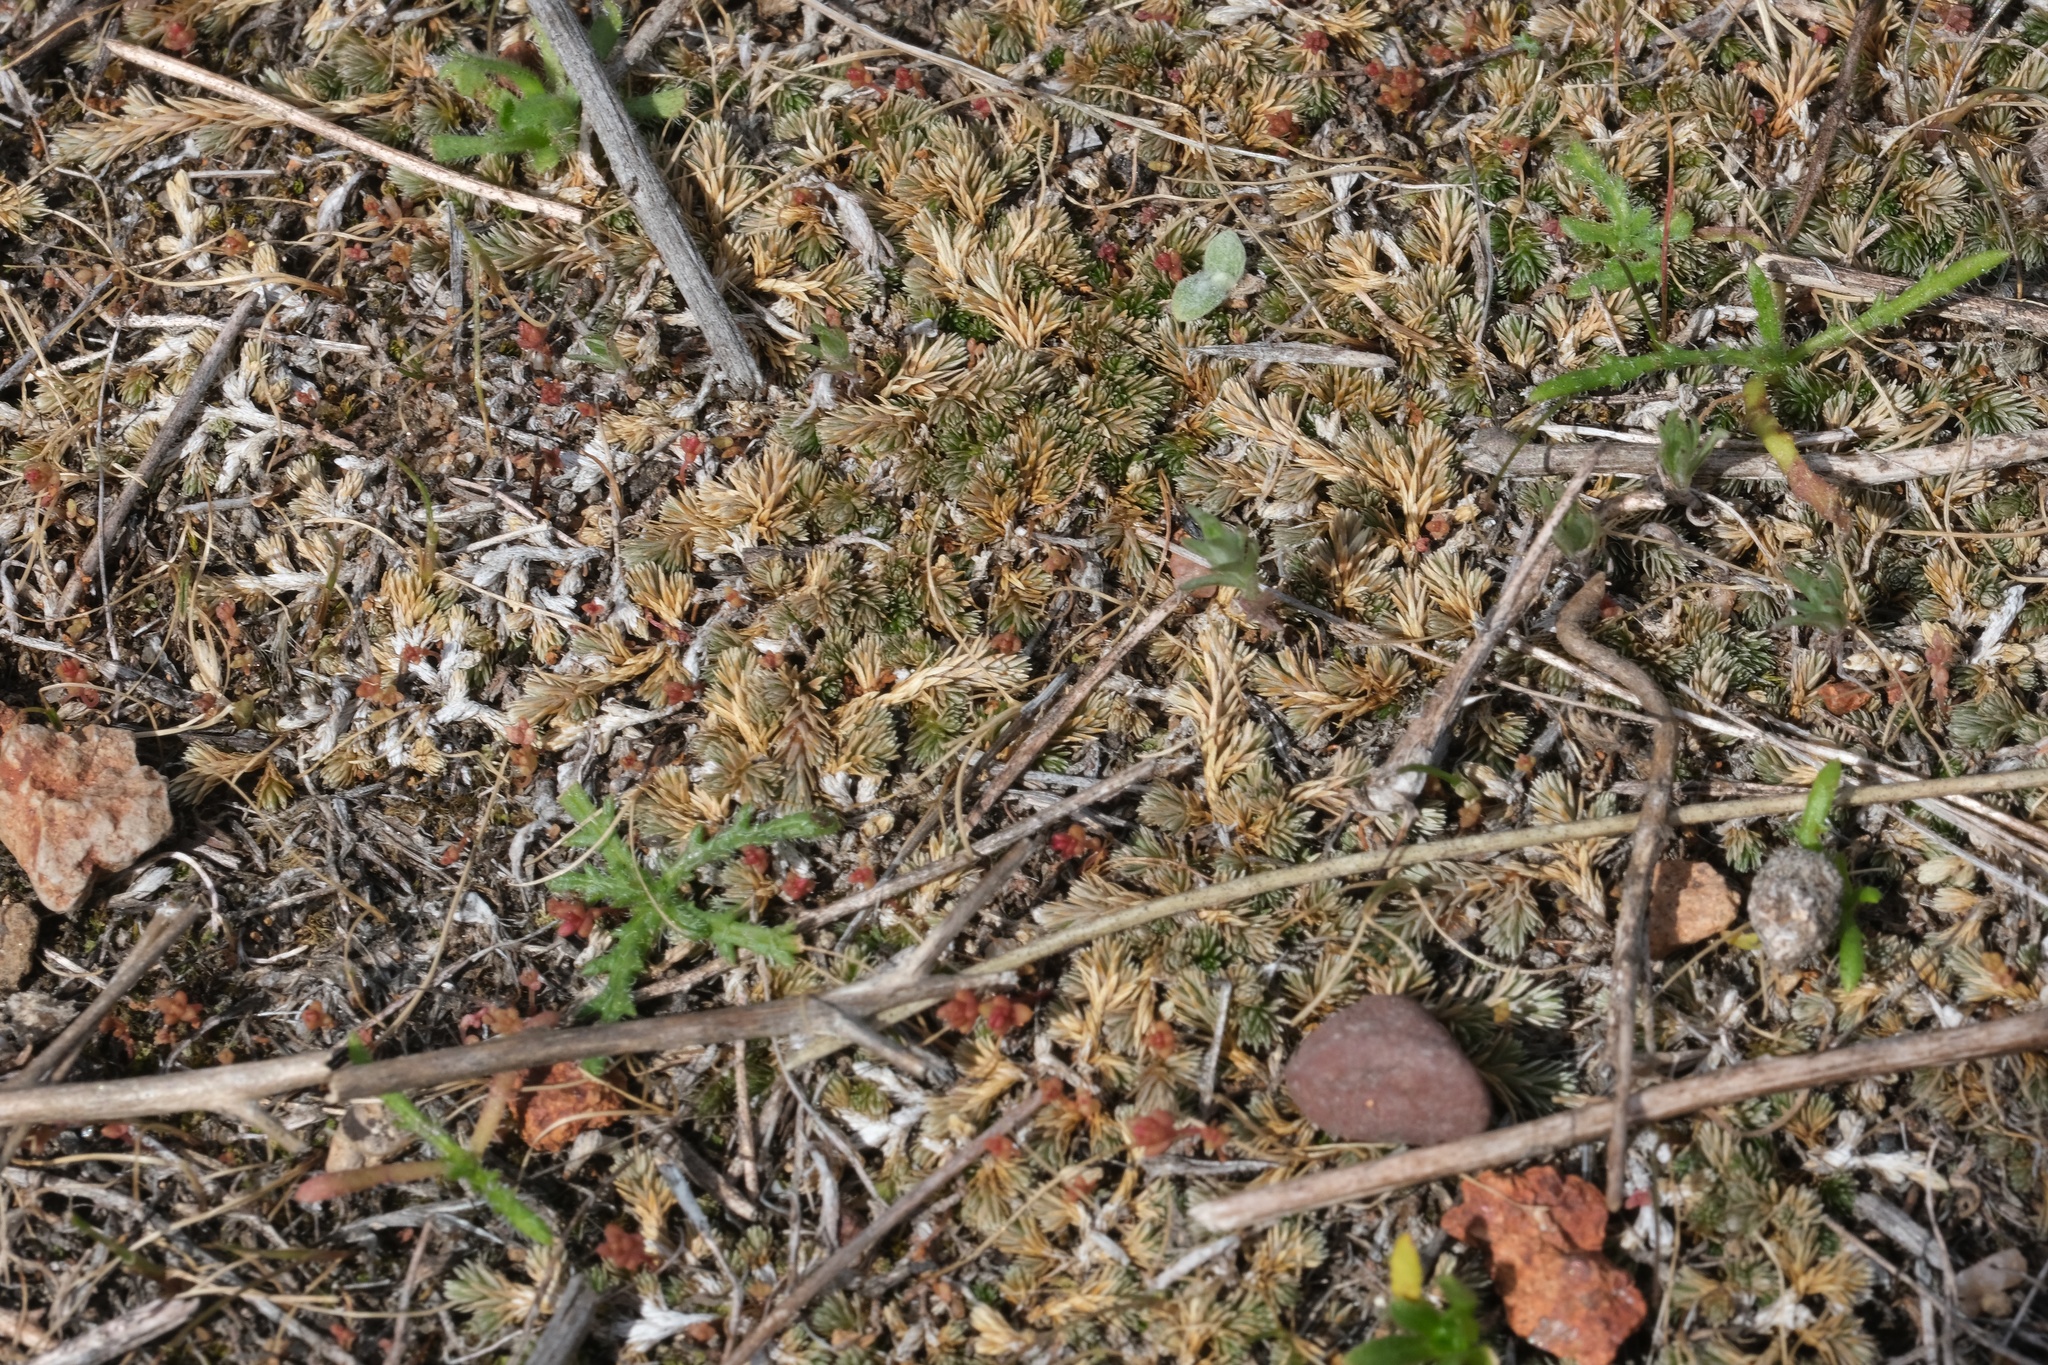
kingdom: Plantae
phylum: Tracheophyta
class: Lycopodiopsida
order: Selaginellales
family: Selaginellaceae
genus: Selaginella
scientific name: Selaginella cinerascens
